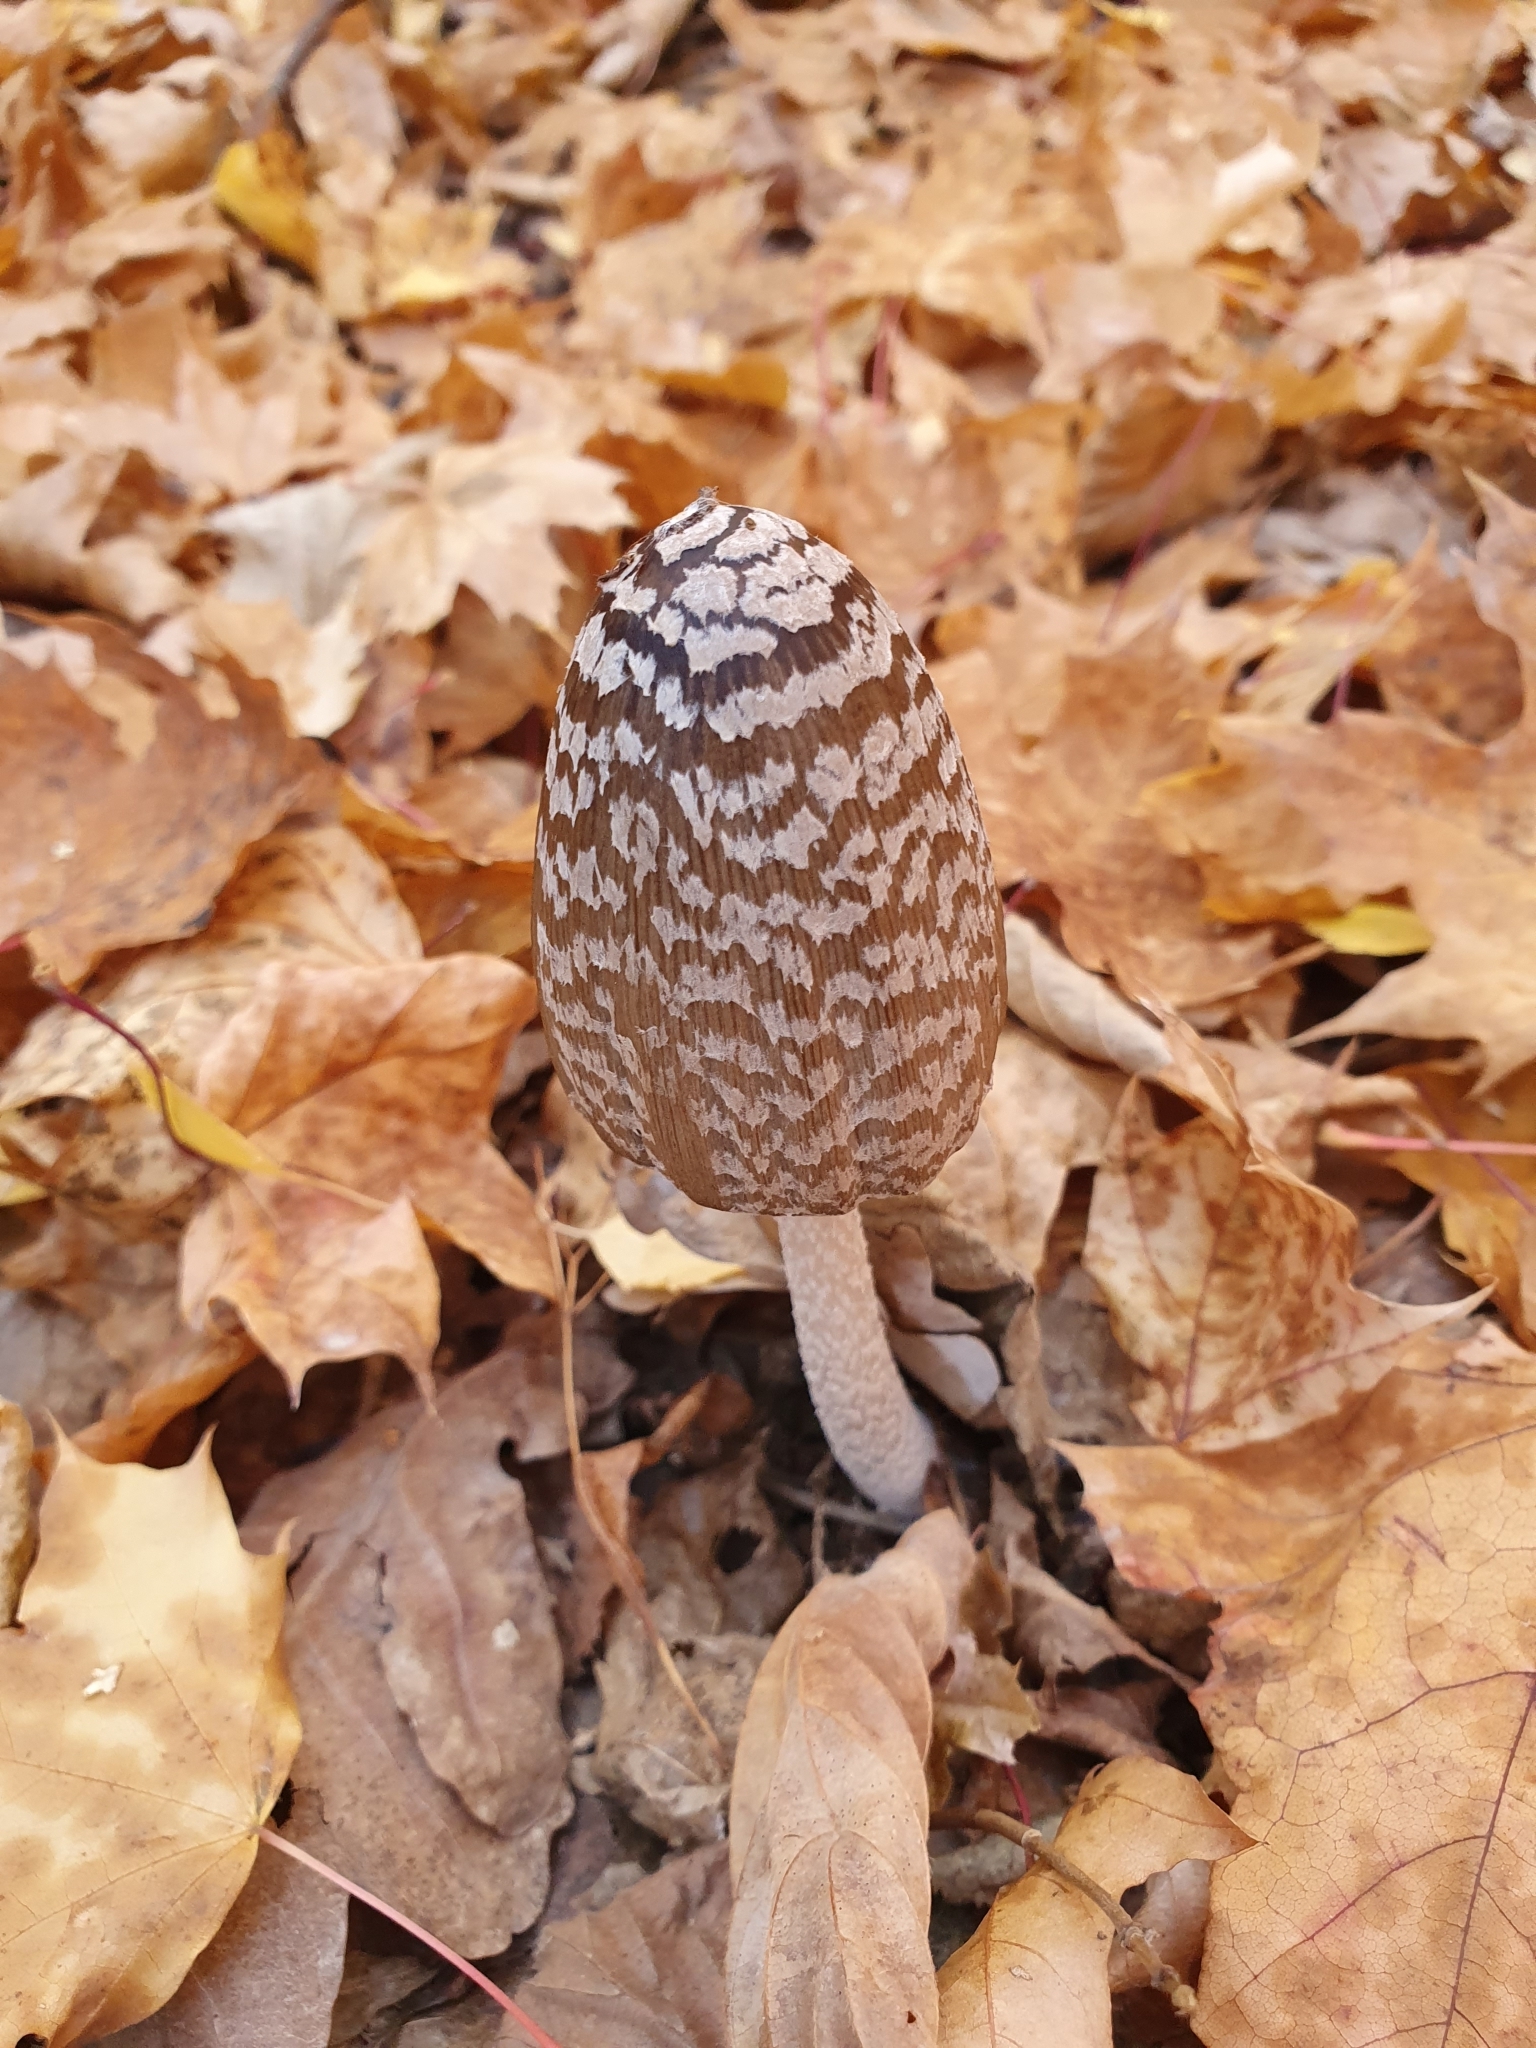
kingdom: Fungi
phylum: Basidiomycota
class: Agaricomycetes
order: Agaricales
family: Psathyrellaceae
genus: Coprinopsis
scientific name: Coprinopsis picacea
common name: Magpie inkcap
